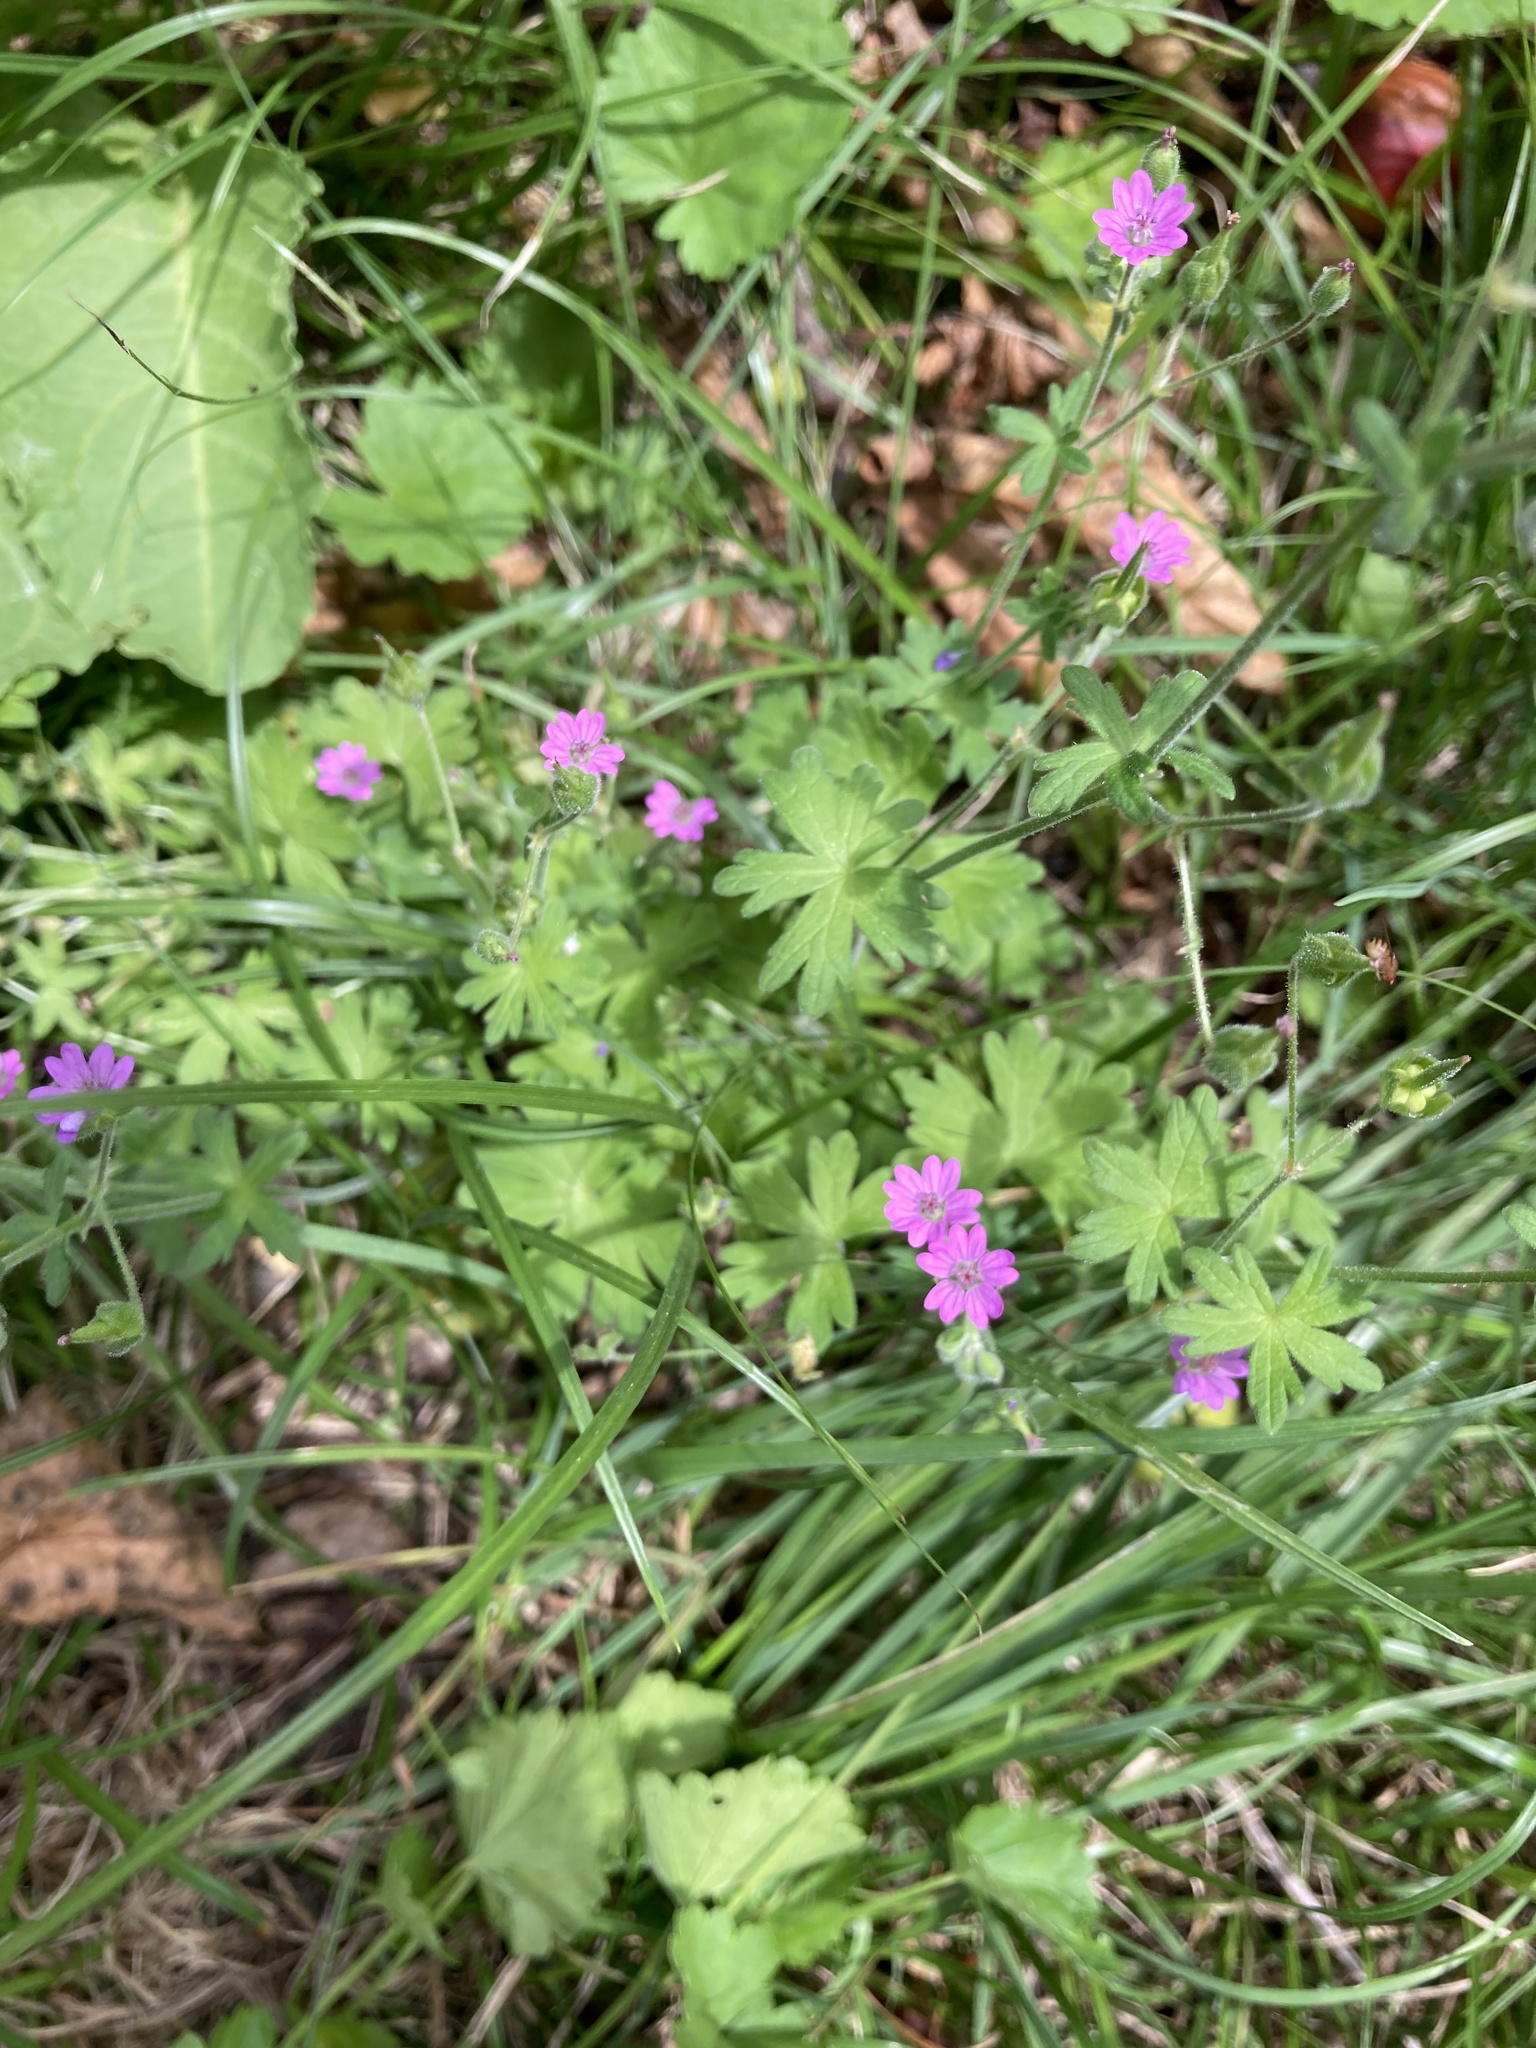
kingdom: Plantae
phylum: Tracheophyta
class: Magnoliopsida
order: Geraniales
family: Geraniaceae
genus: Geranium
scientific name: Geranium molle
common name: Dove's-foot crane's-bill
